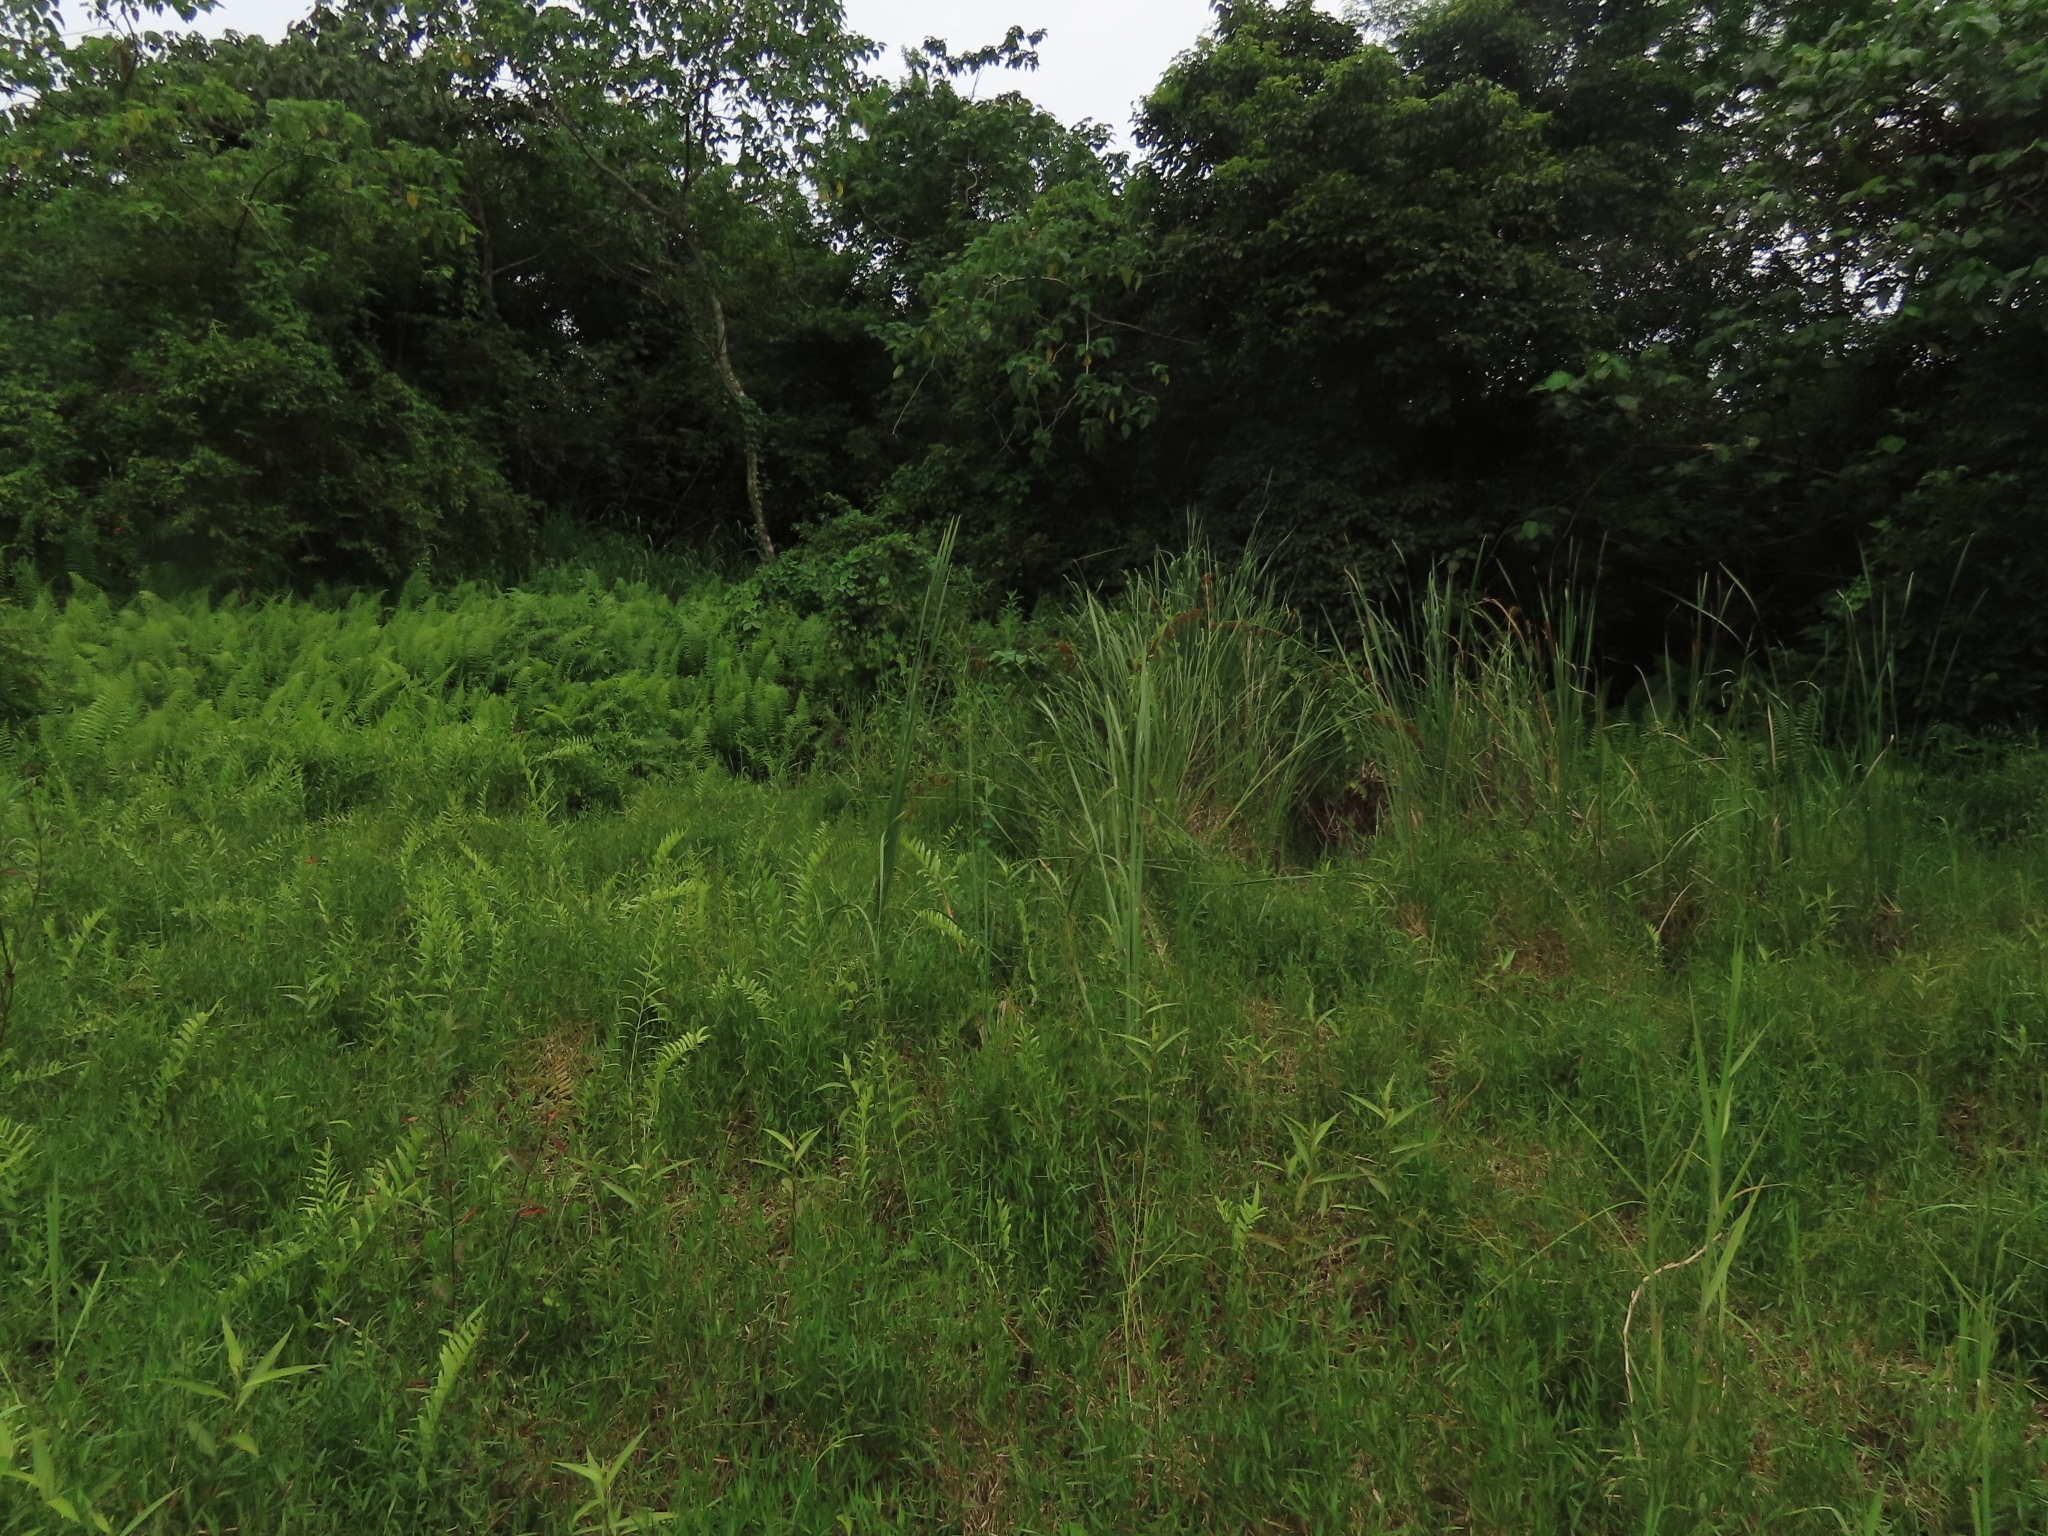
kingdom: Plantae
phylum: Tracheophyta
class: Liliopsida
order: Poales
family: Poaceae
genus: Isachne
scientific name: Isachne globosa
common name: Swamp millet
